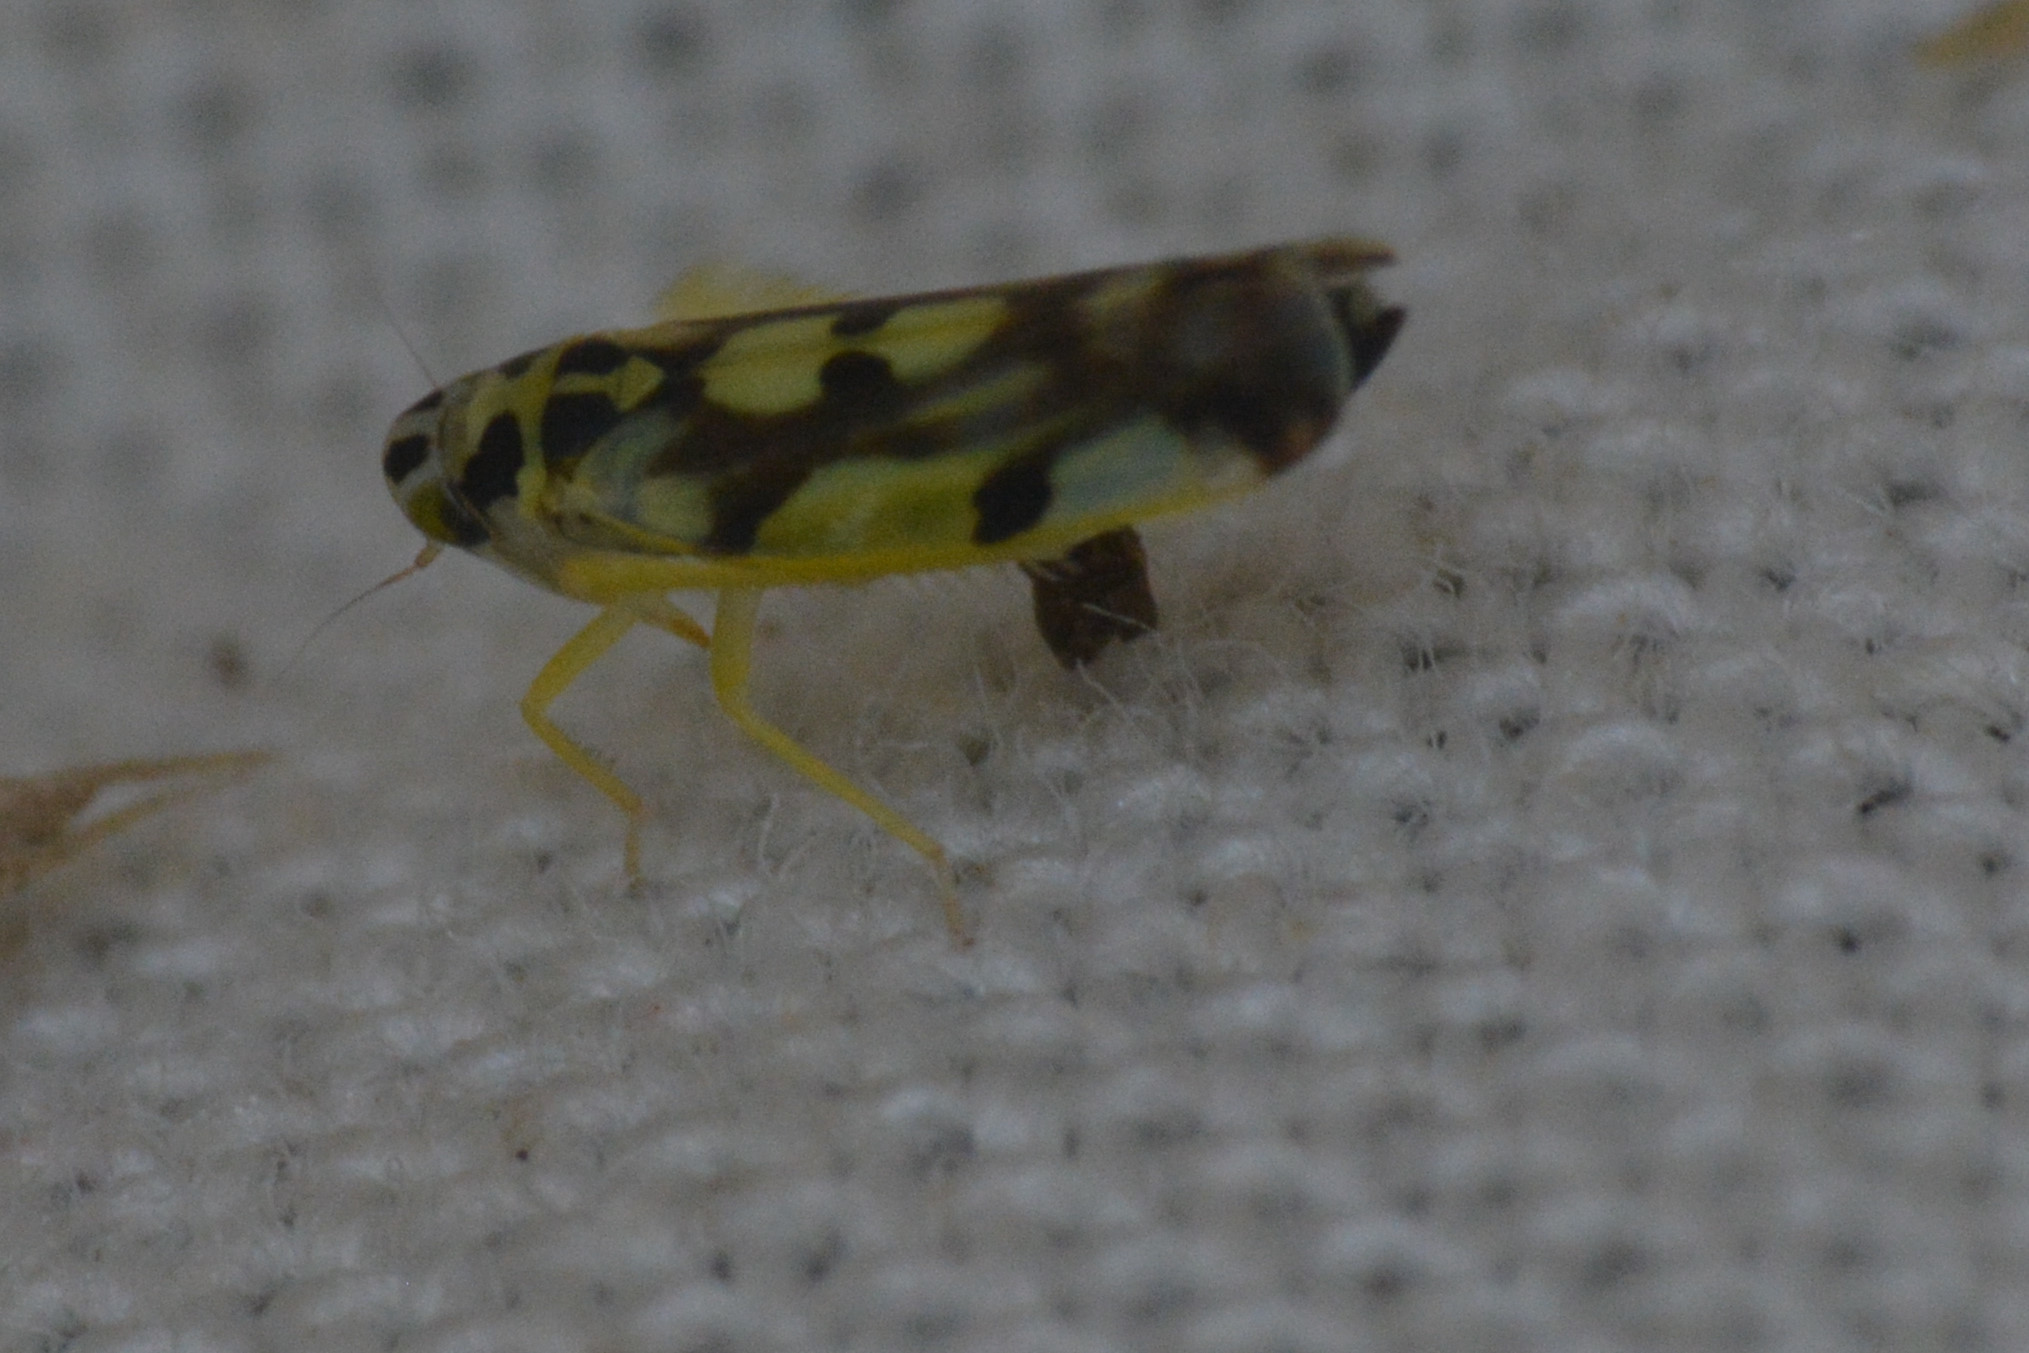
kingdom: Animalia
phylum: Arthropoda
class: Insecta
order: Hemiptera
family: Cicadellidae
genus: Eupteryx
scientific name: Eupteryx aurata
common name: Leafhopper
